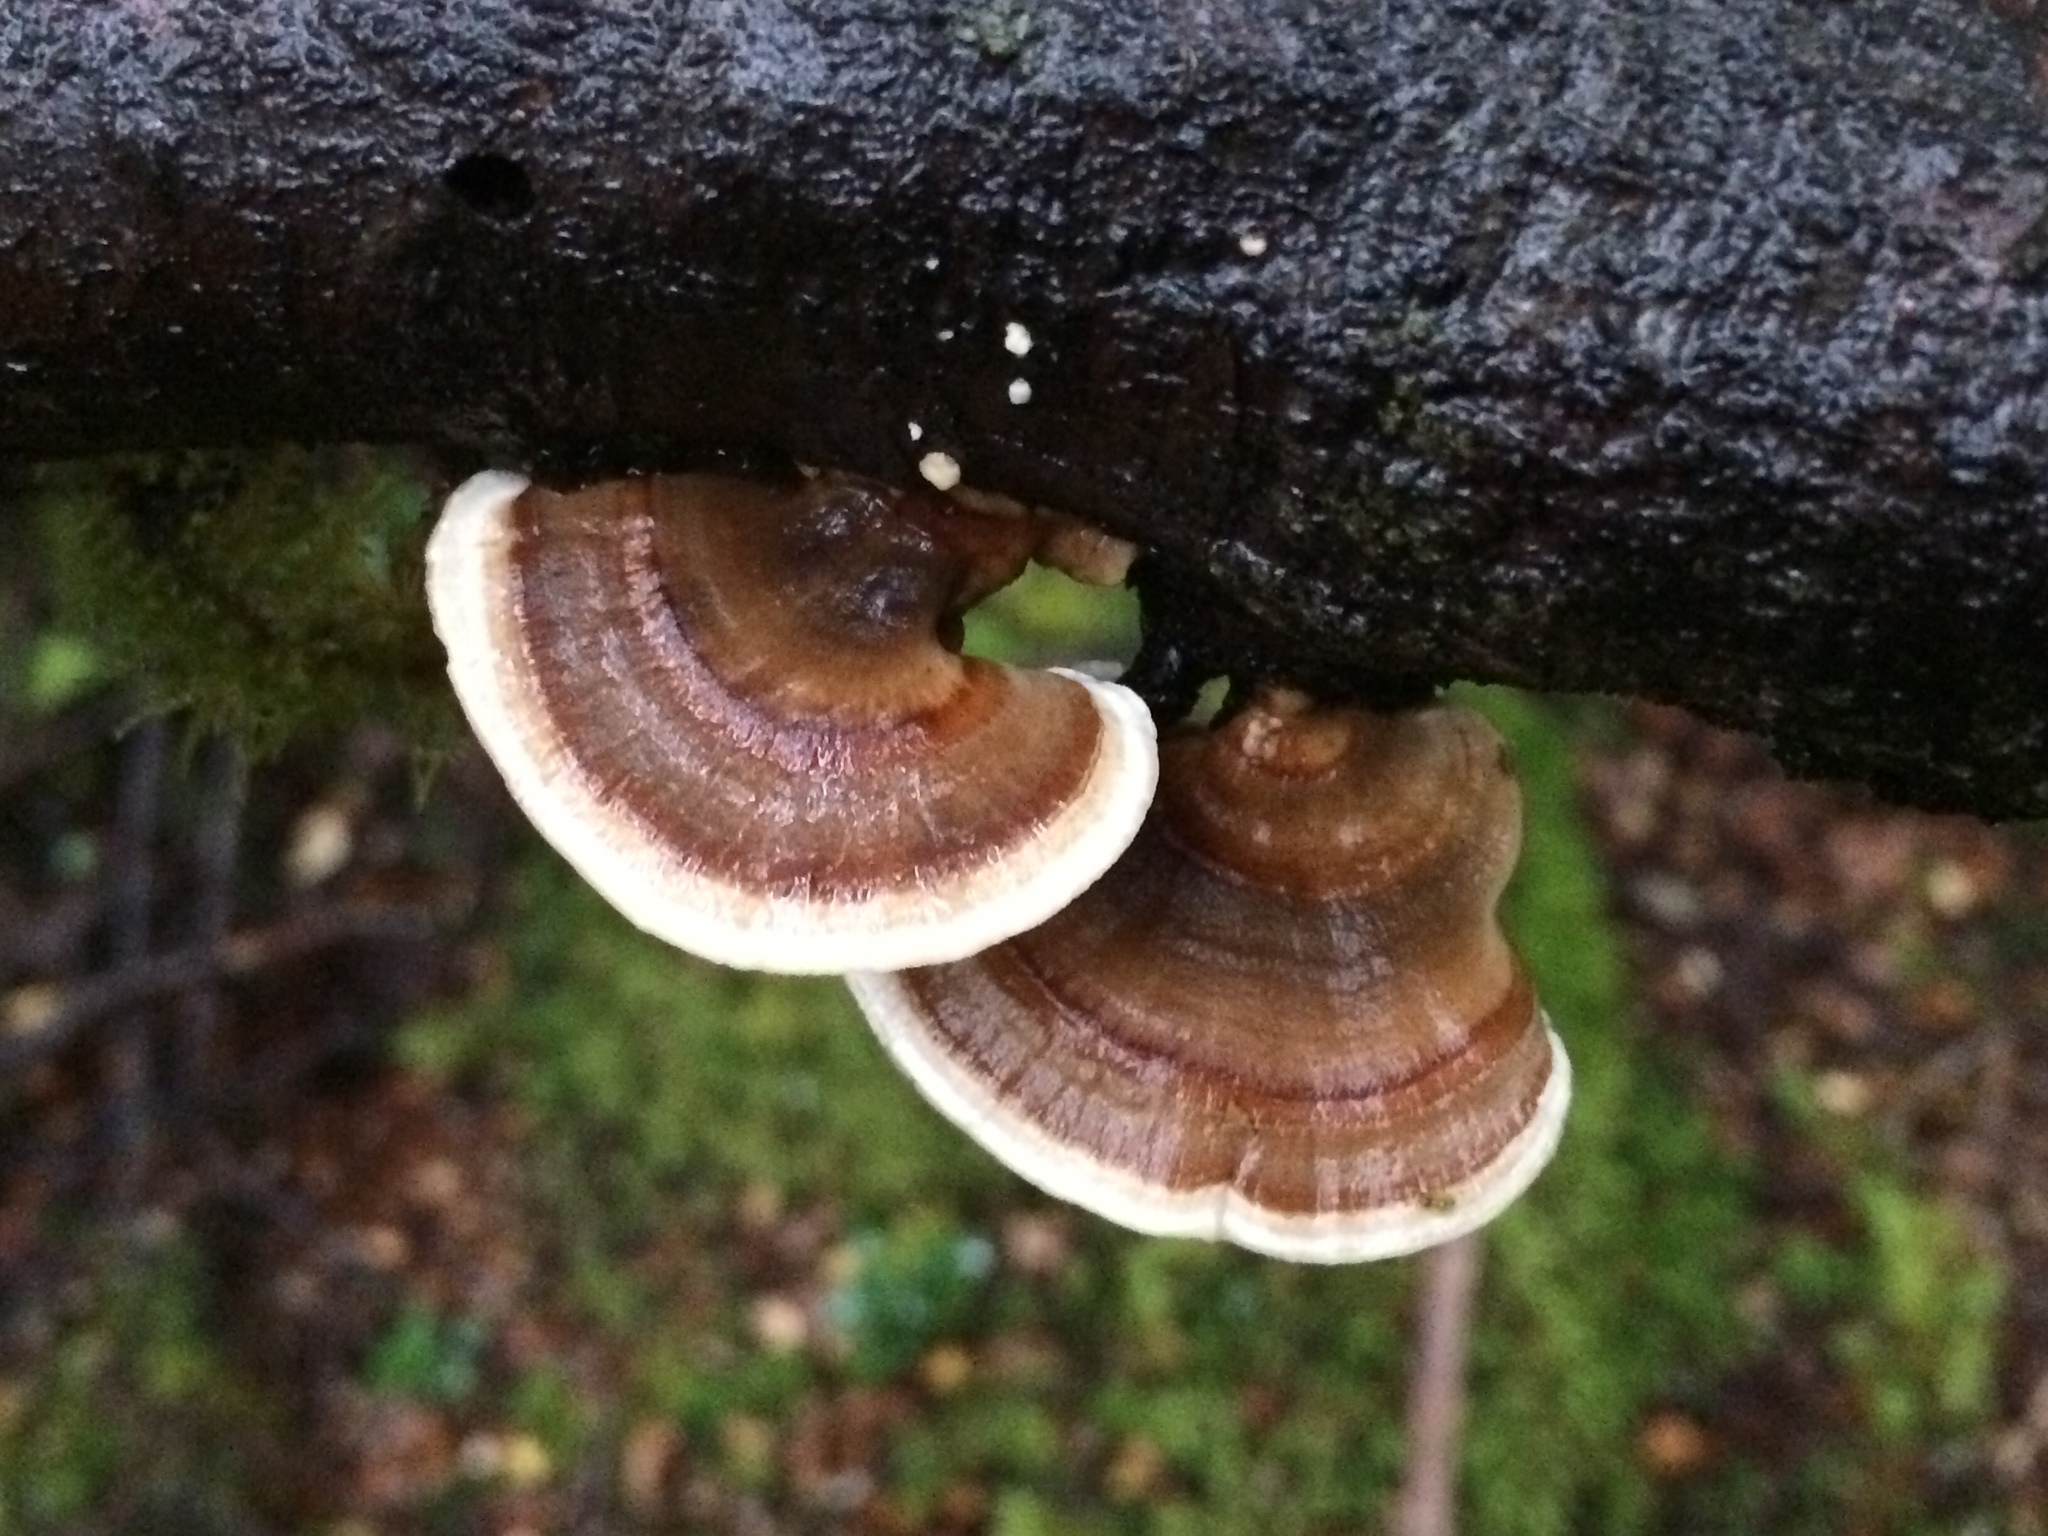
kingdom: Fungi
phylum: Basidiomycota
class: Agaricomycetes
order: Polyporales
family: Polyporaceae
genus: Trametes
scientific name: Trametes versicolor
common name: Turkeytail
